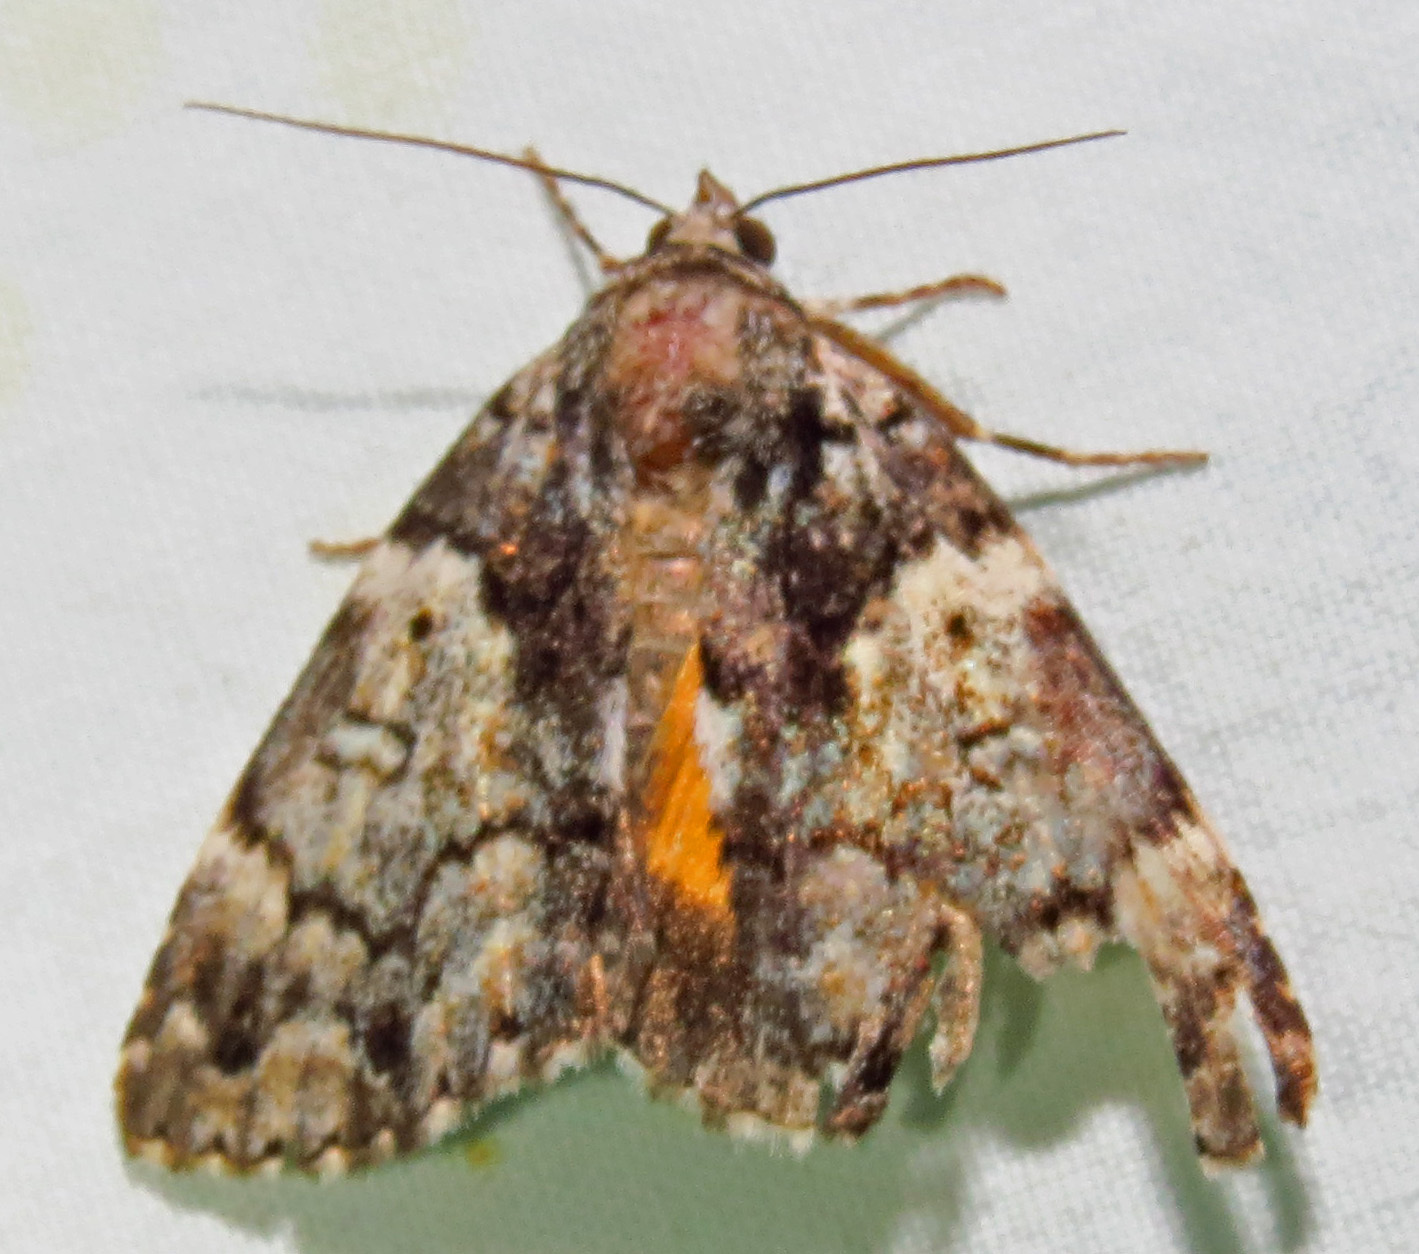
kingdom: Animalia
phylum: Arthropoda
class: Insecta
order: Lepidoptera
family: Erebidae
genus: Allotria
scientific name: Allotria elonympha
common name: False underwing
